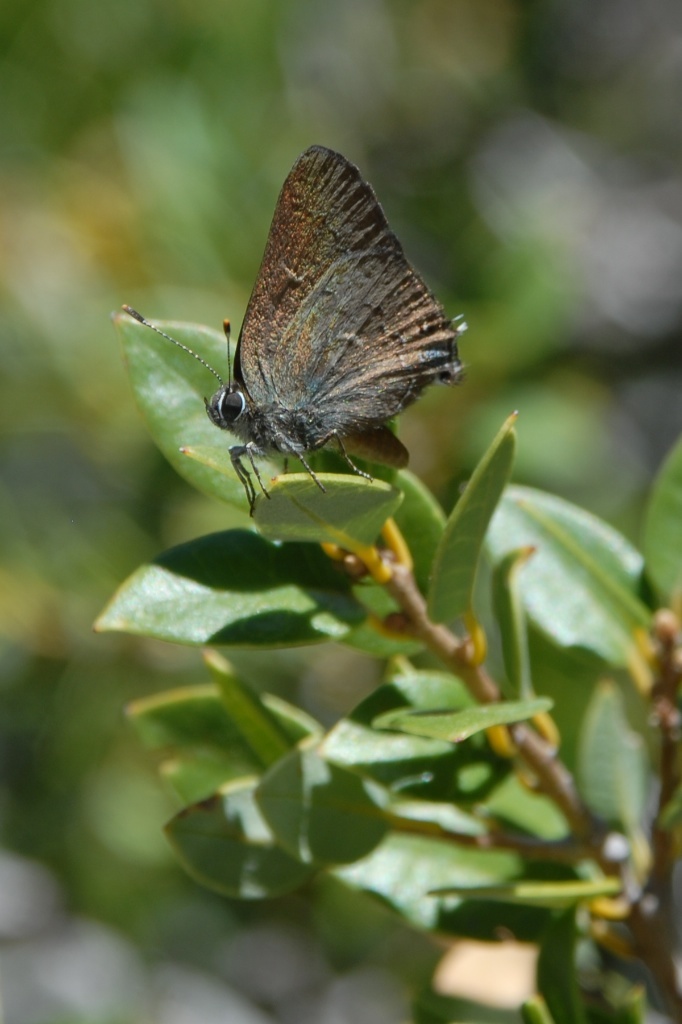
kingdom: Animalia
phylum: Arthropoda
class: Insecta
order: Lepidoptera
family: Lycaenidae
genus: Strymon
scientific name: Strymon saepium
